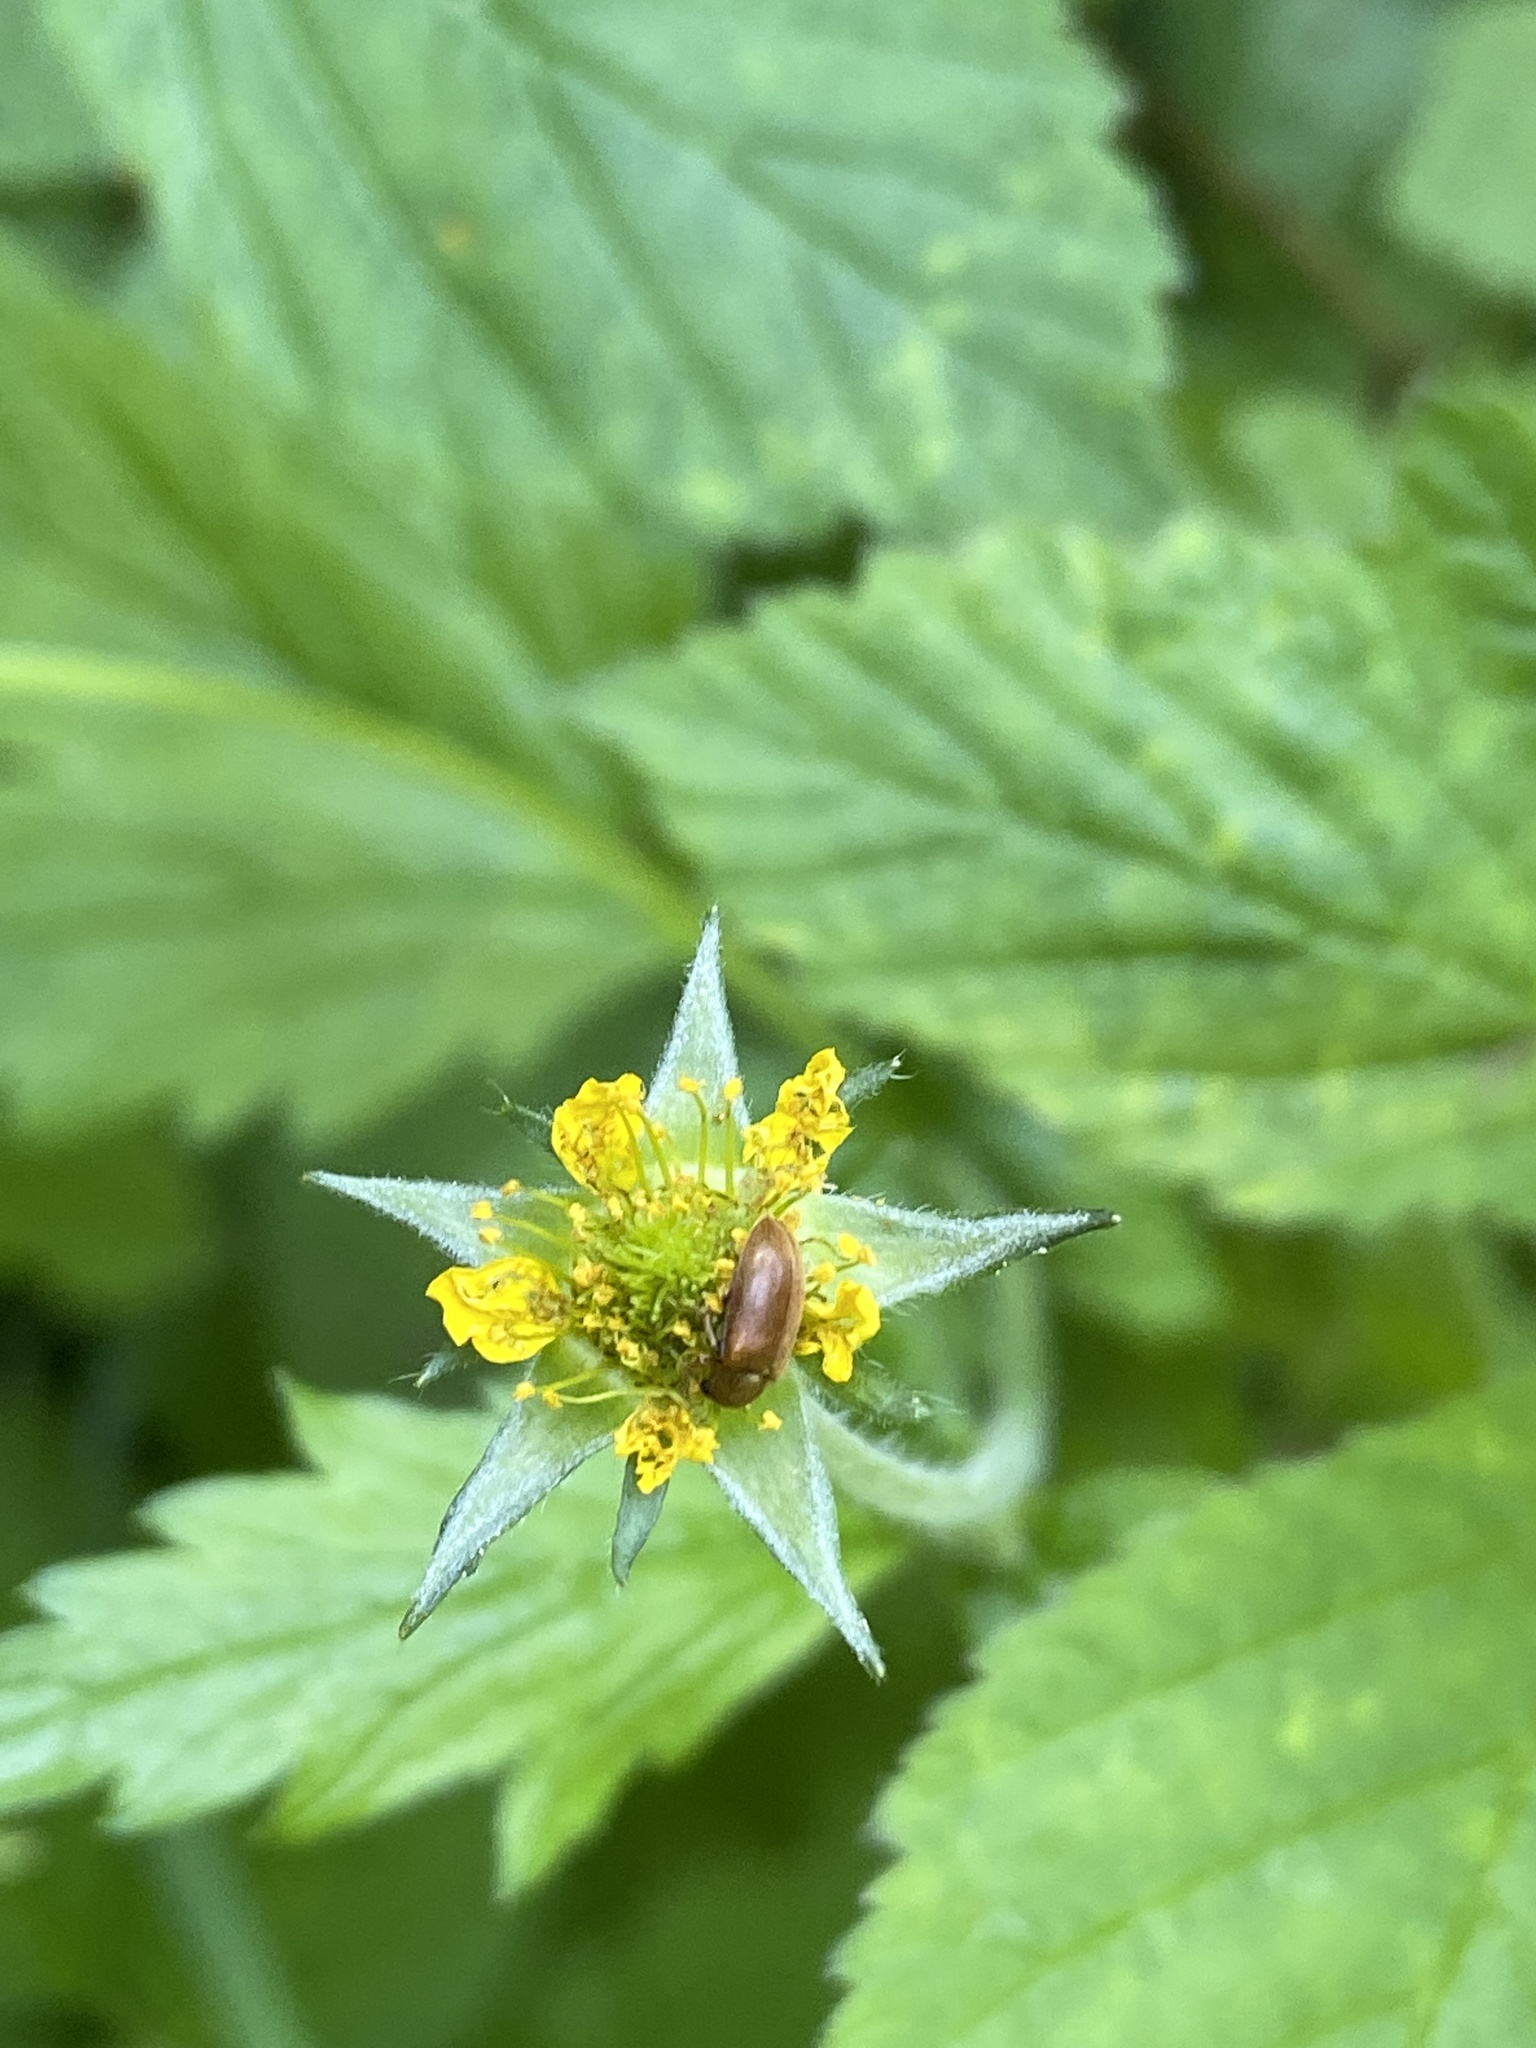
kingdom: Plantae
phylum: Tracheophyta
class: Magnoliopsida
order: Rosales
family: Rosaceae
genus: Geum
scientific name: Geum urbanum
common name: Wood avens
